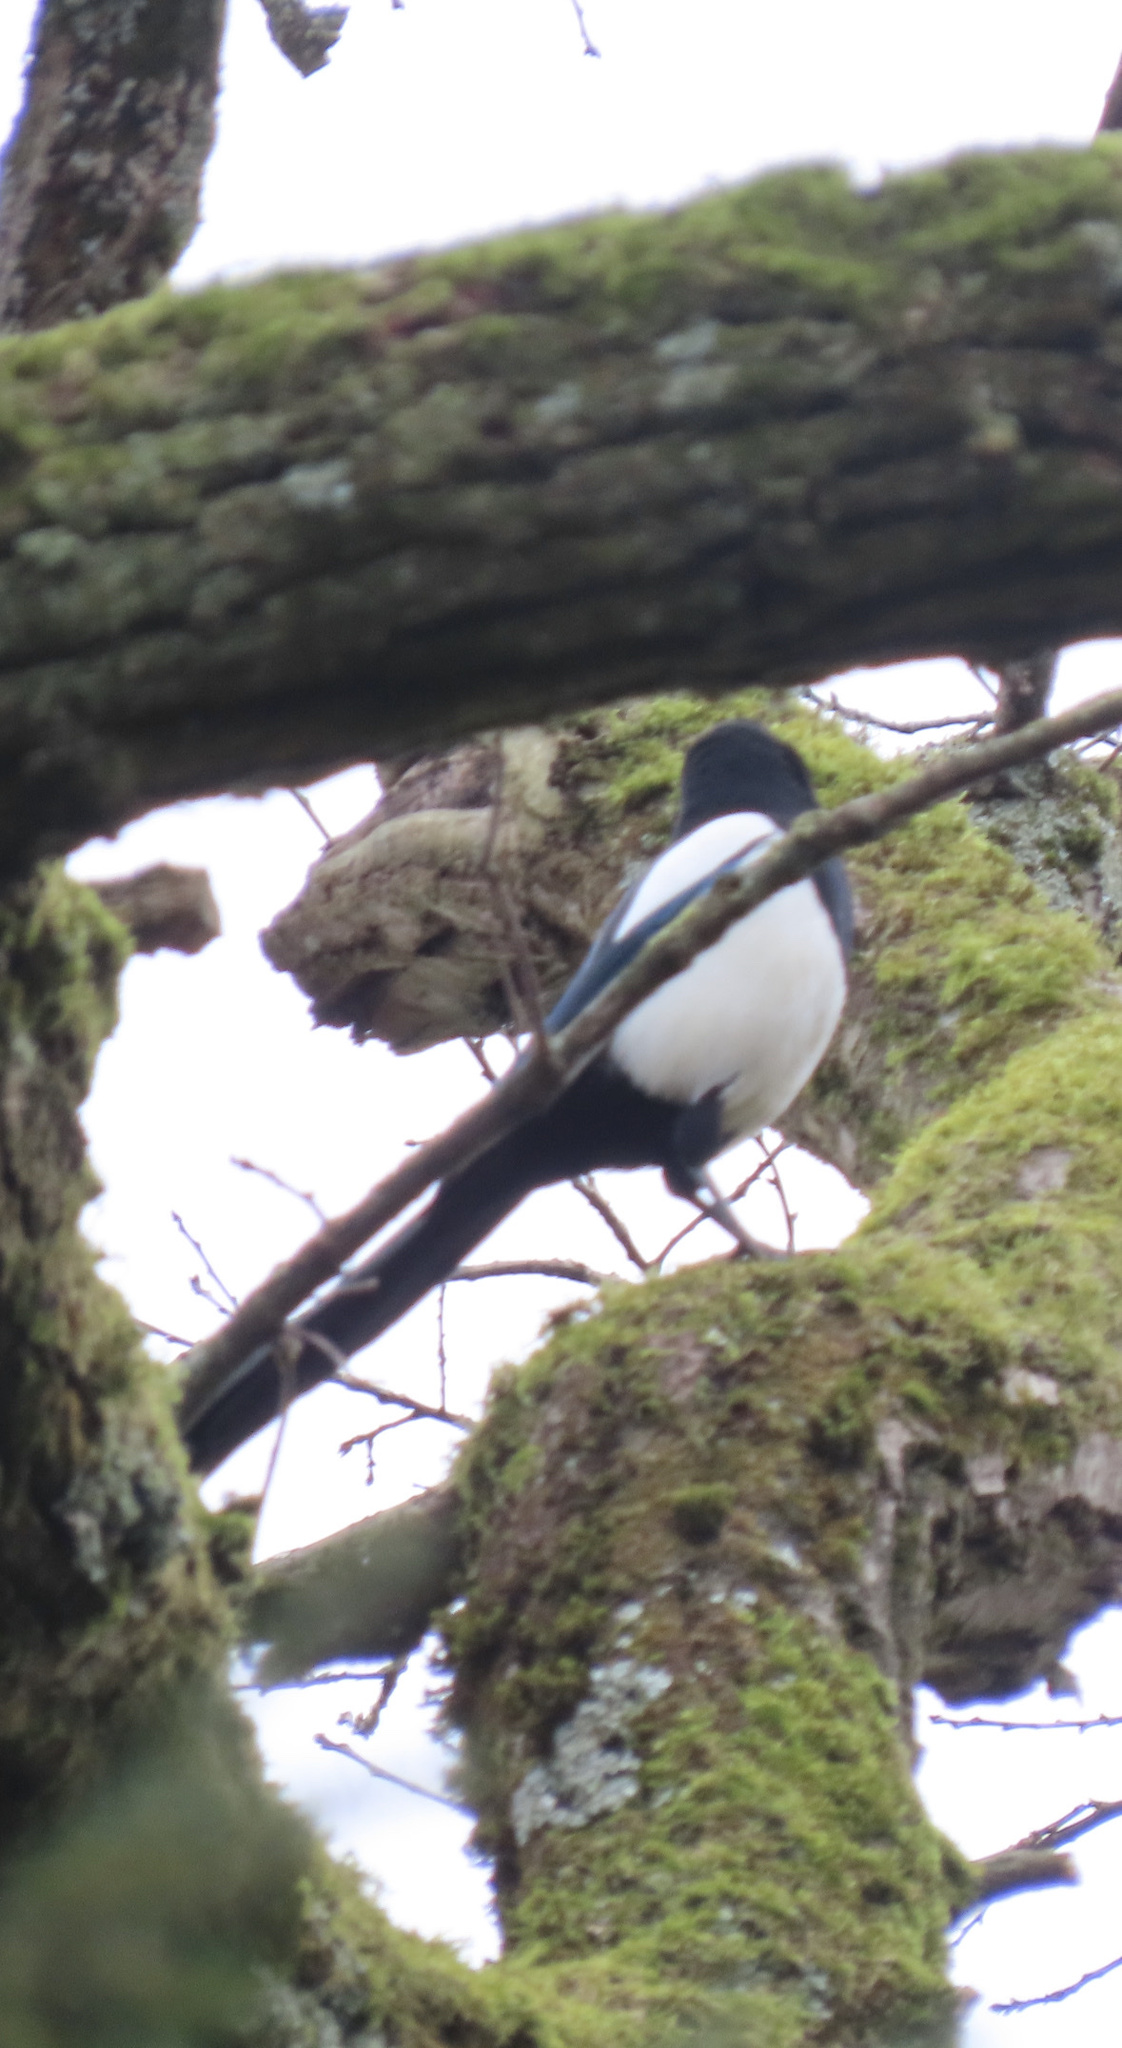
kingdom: Animalia
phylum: Chordata
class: Aves
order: Passeriformes
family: Corvidae
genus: Pica
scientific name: Pica pica
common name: Eurasian magpie
